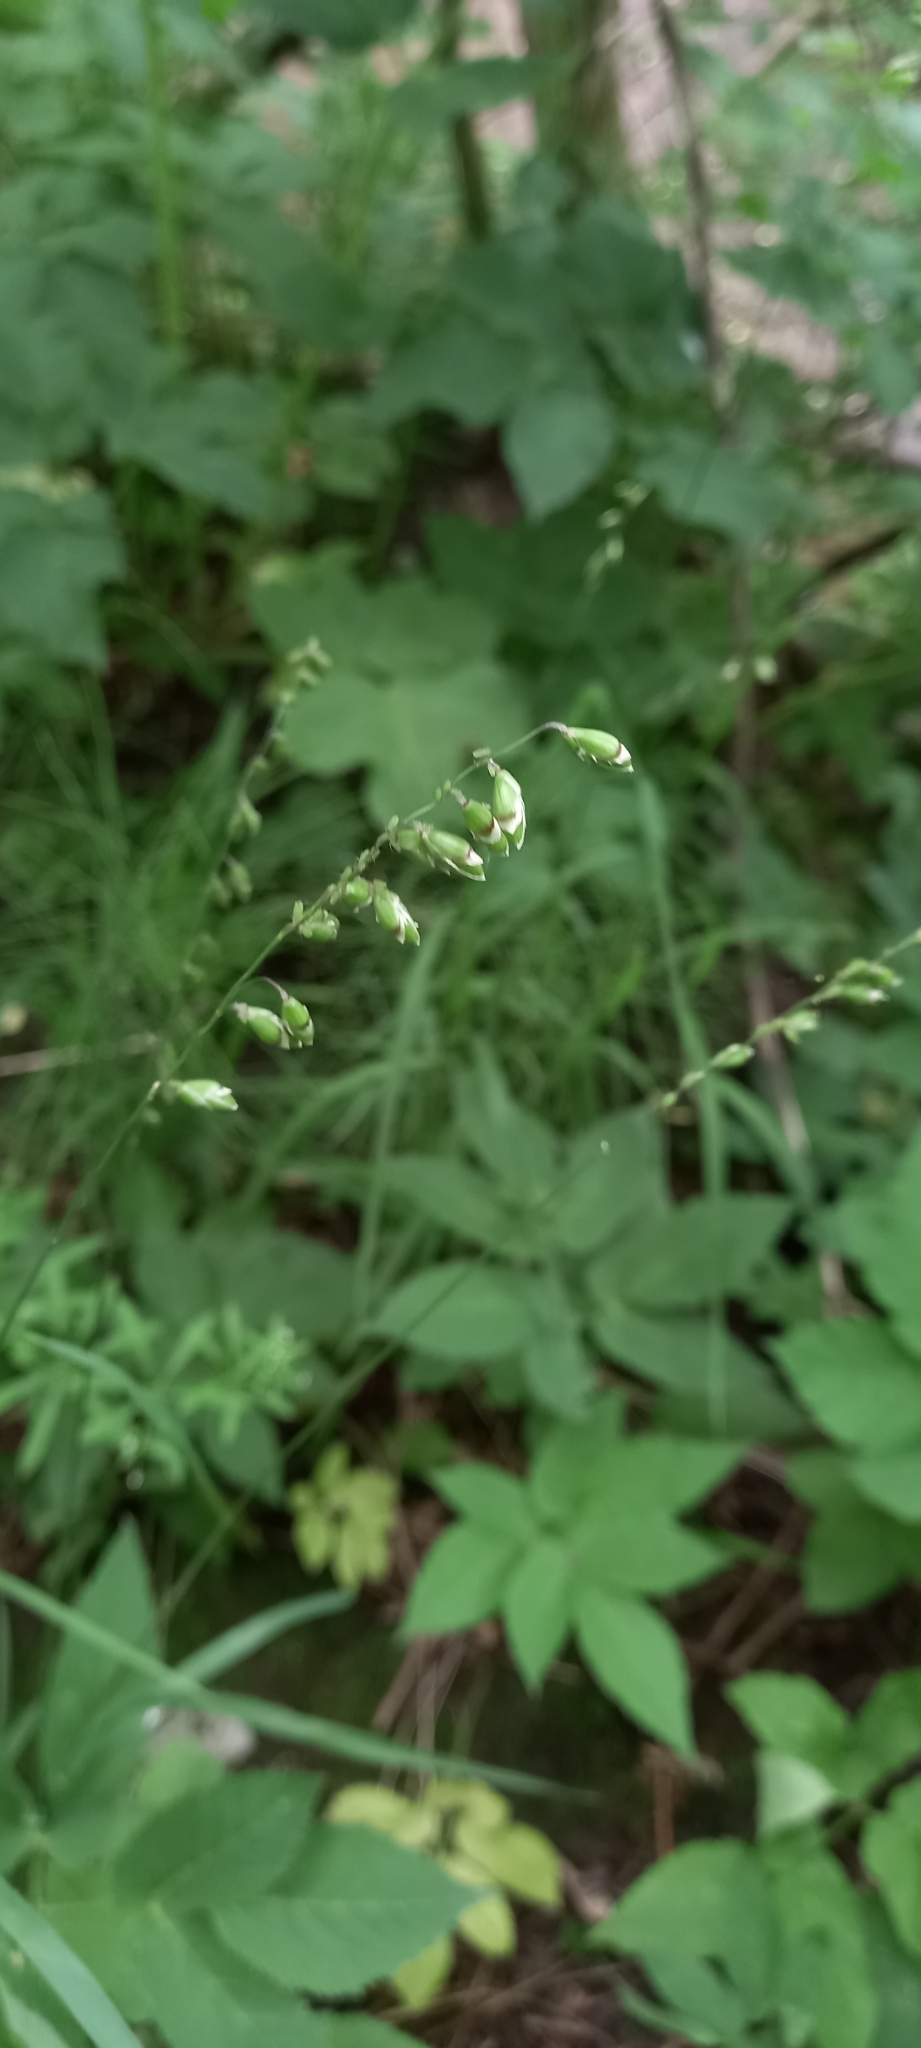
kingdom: Plantae
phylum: Tracheophyta
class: Liliopsida
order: Poales
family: Poaceae
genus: Melica
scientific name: Melica picta
